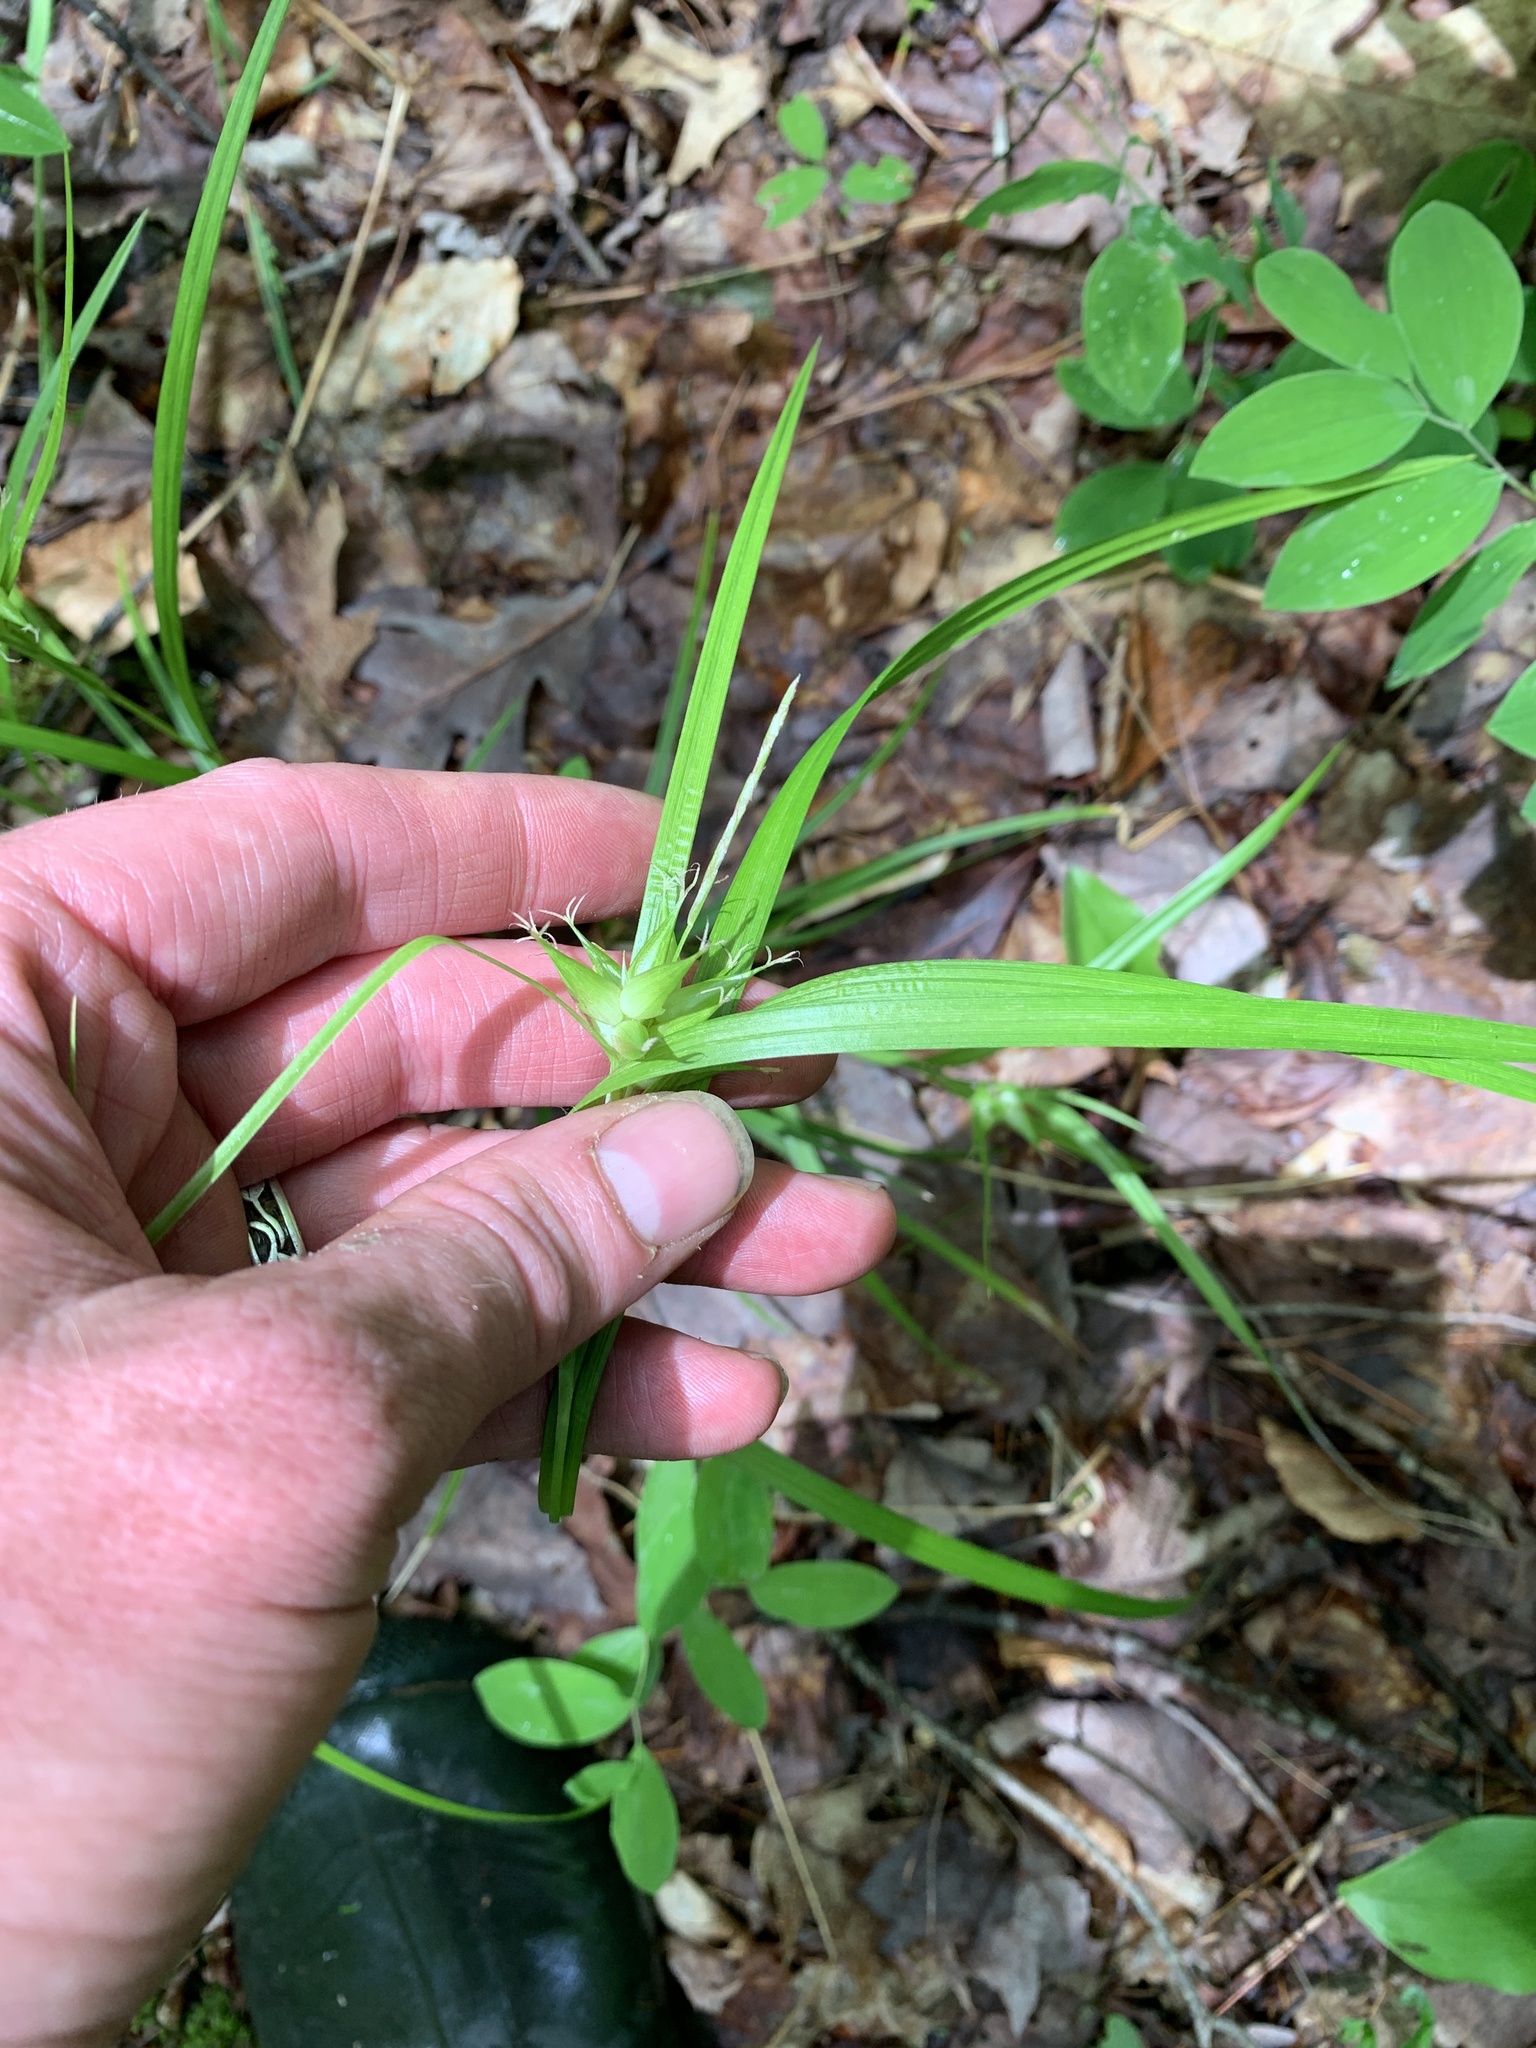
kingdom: Plantae
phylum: Tracheophyta
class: Liliopsida
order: Poales
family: Cyperaceae
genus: Carex
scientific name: Carex intumescens
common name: Greater bladder sedge
